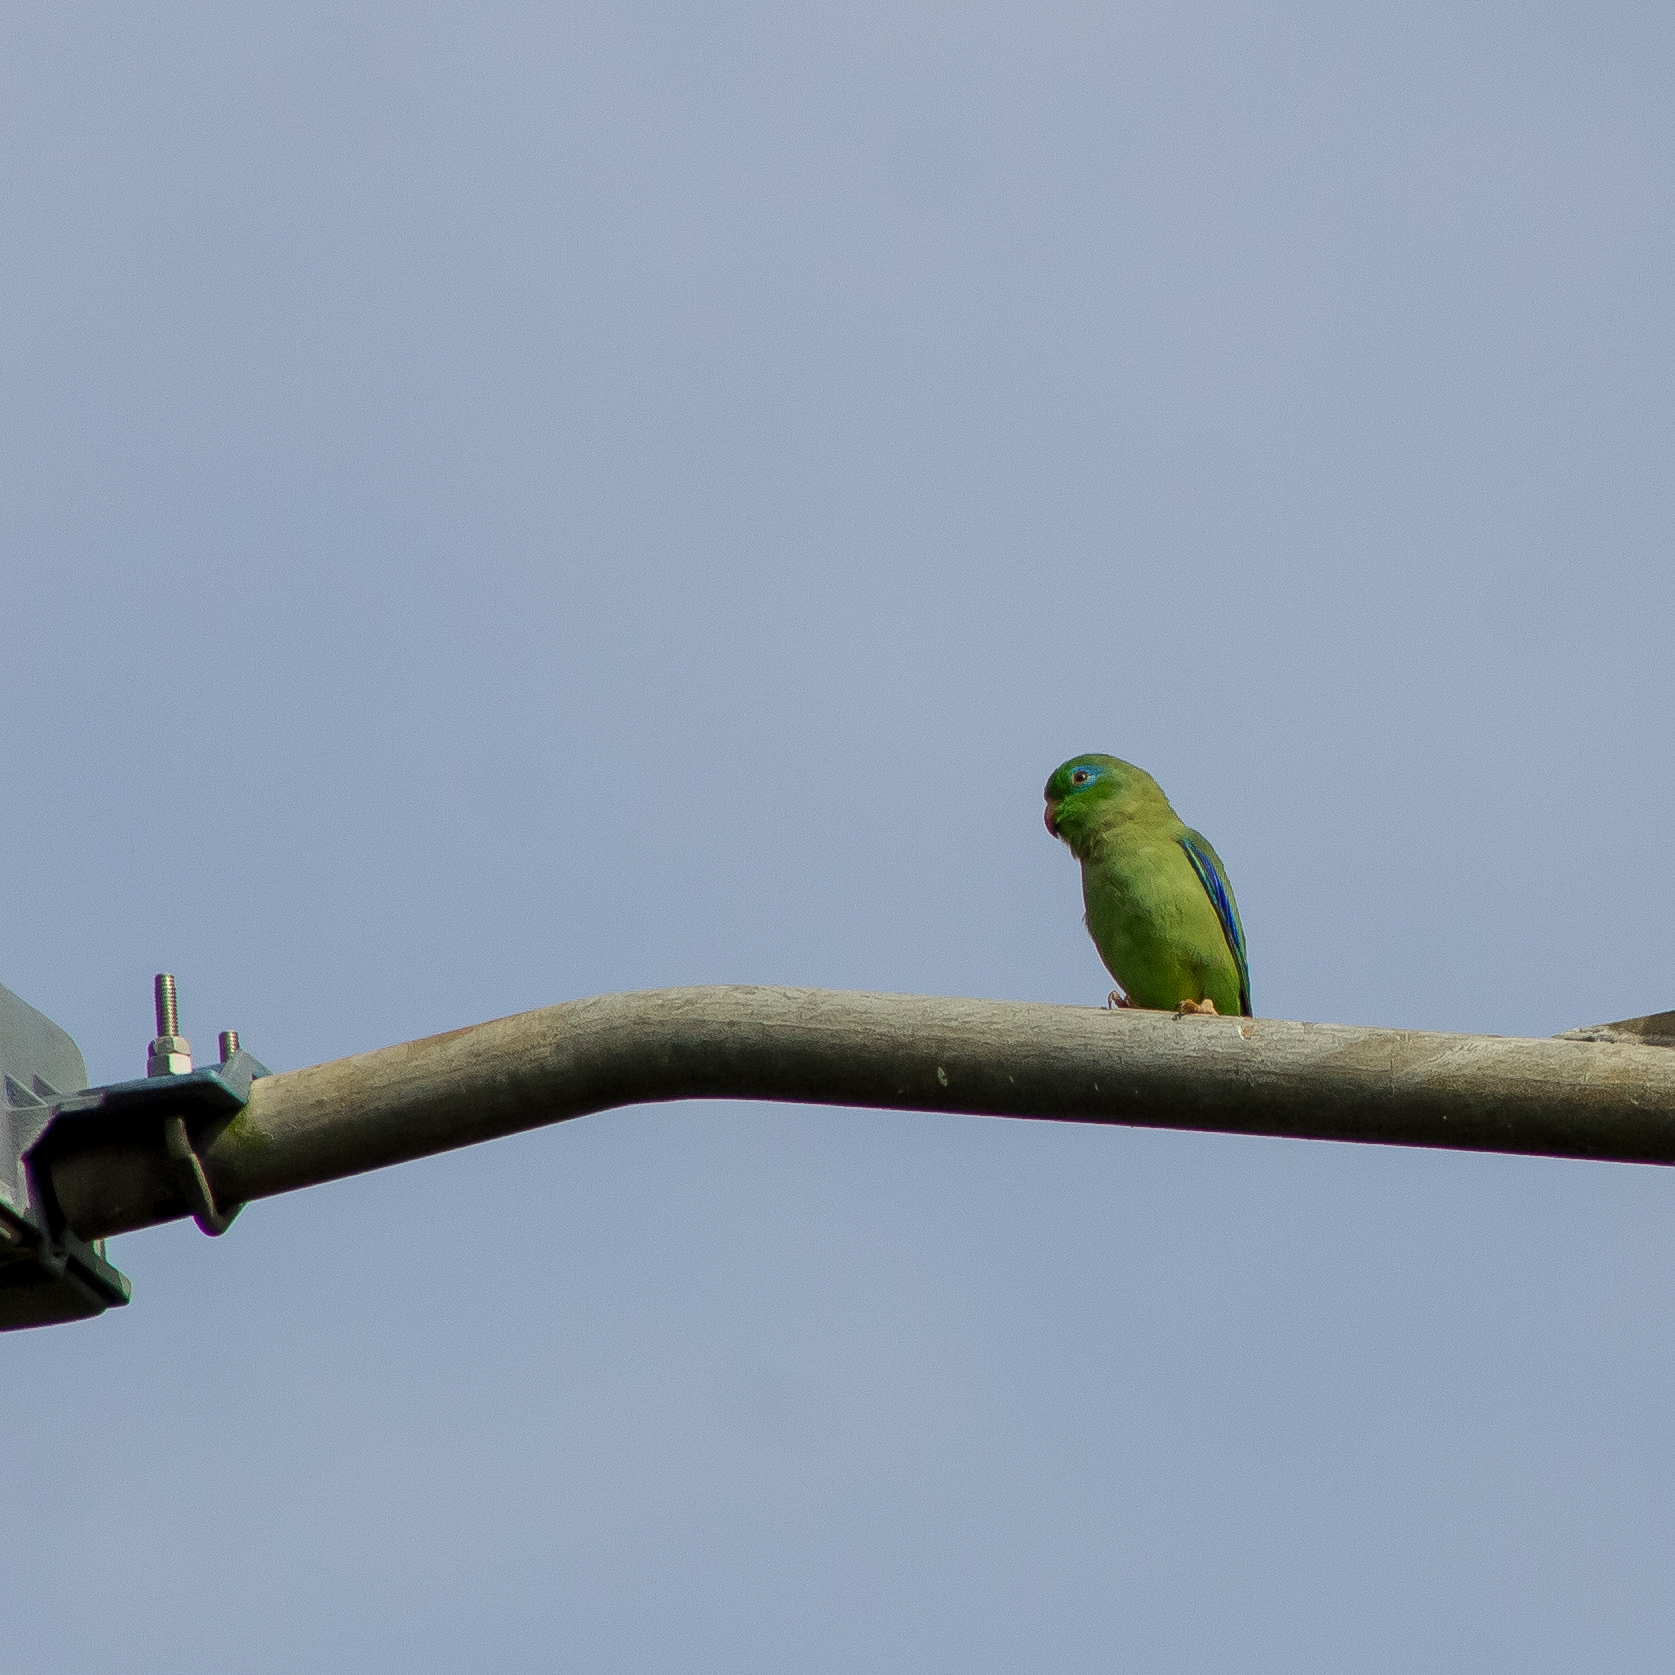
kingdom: Animalia
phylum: Chordata
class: Aves
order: Psittaciformes
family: Psittacidae
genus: Forpus
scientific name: Forpus conspicillatus
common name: Spectacled parrotlet
